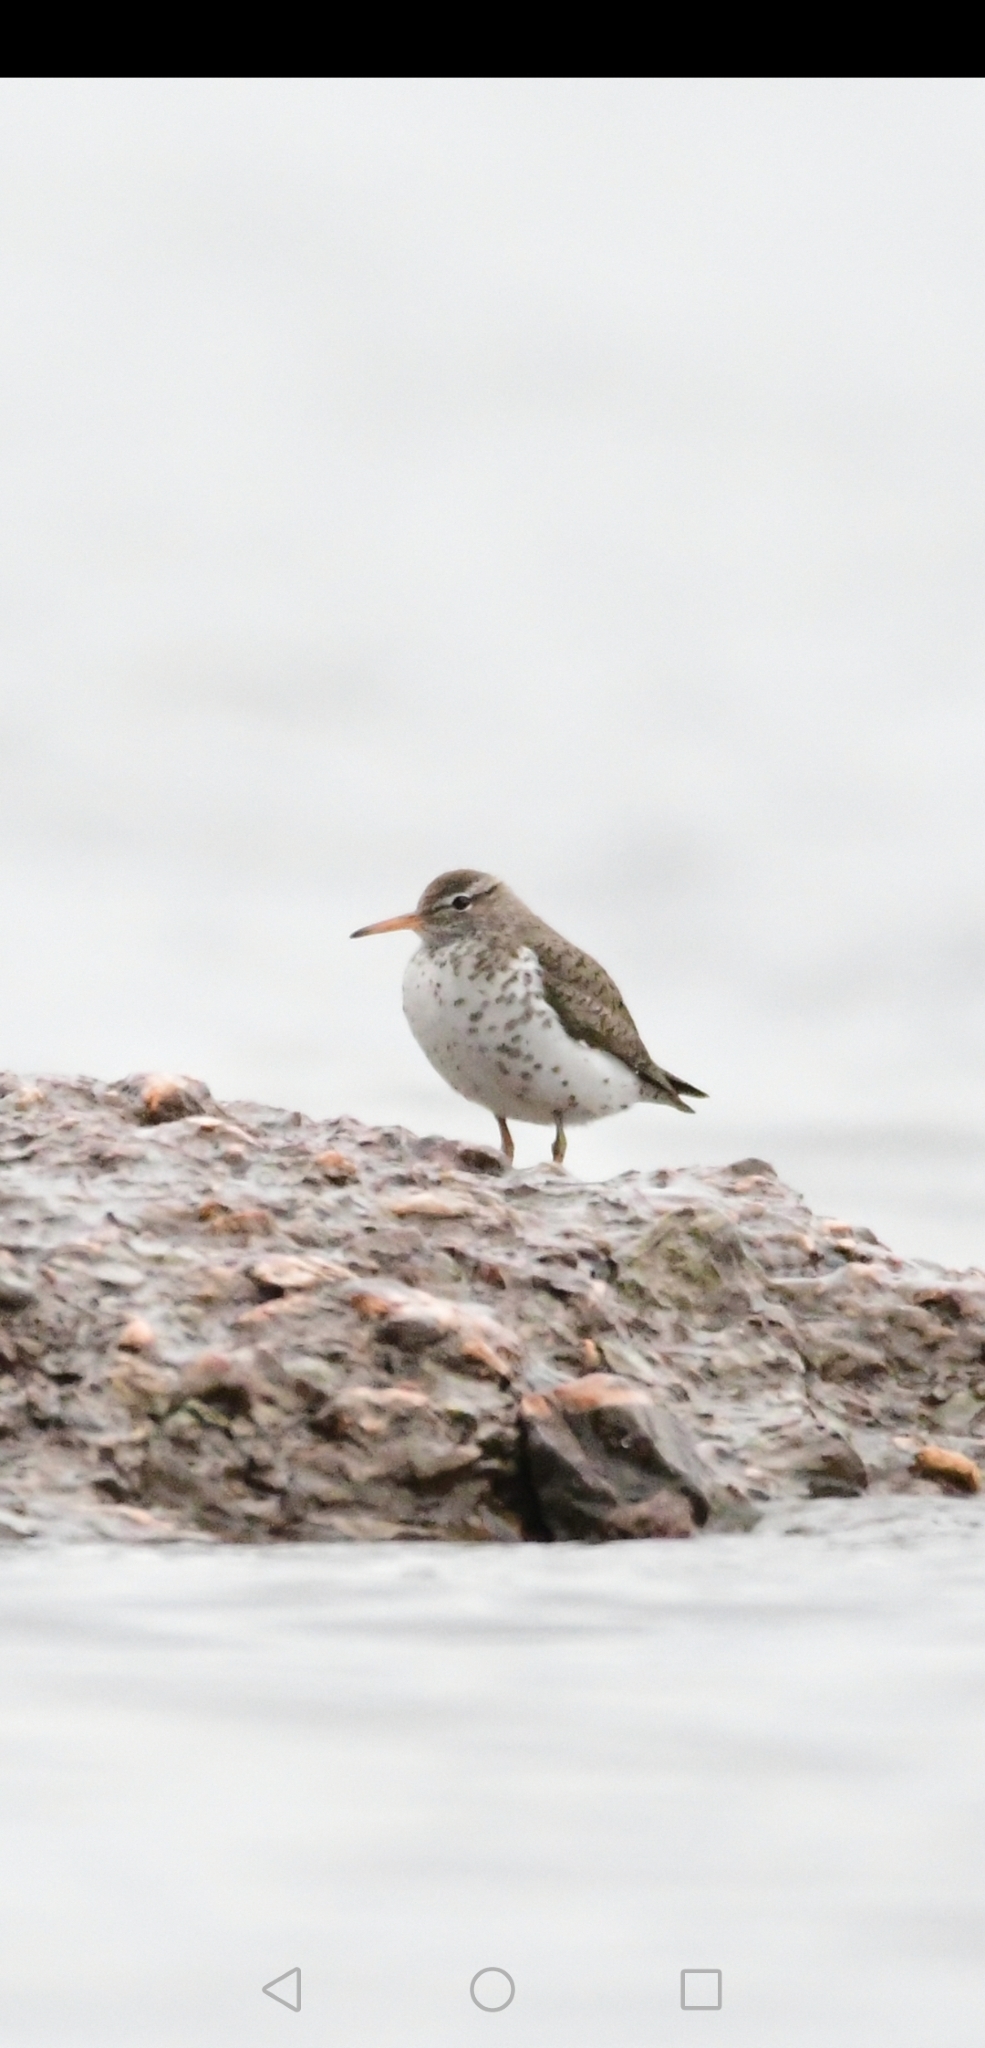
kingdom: Animalia
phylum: Chordata
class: Aves
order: Charadriiformes
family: Scolopacidae
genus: Actitis
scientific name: Actitis macularius
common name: Spotted sandpiper
